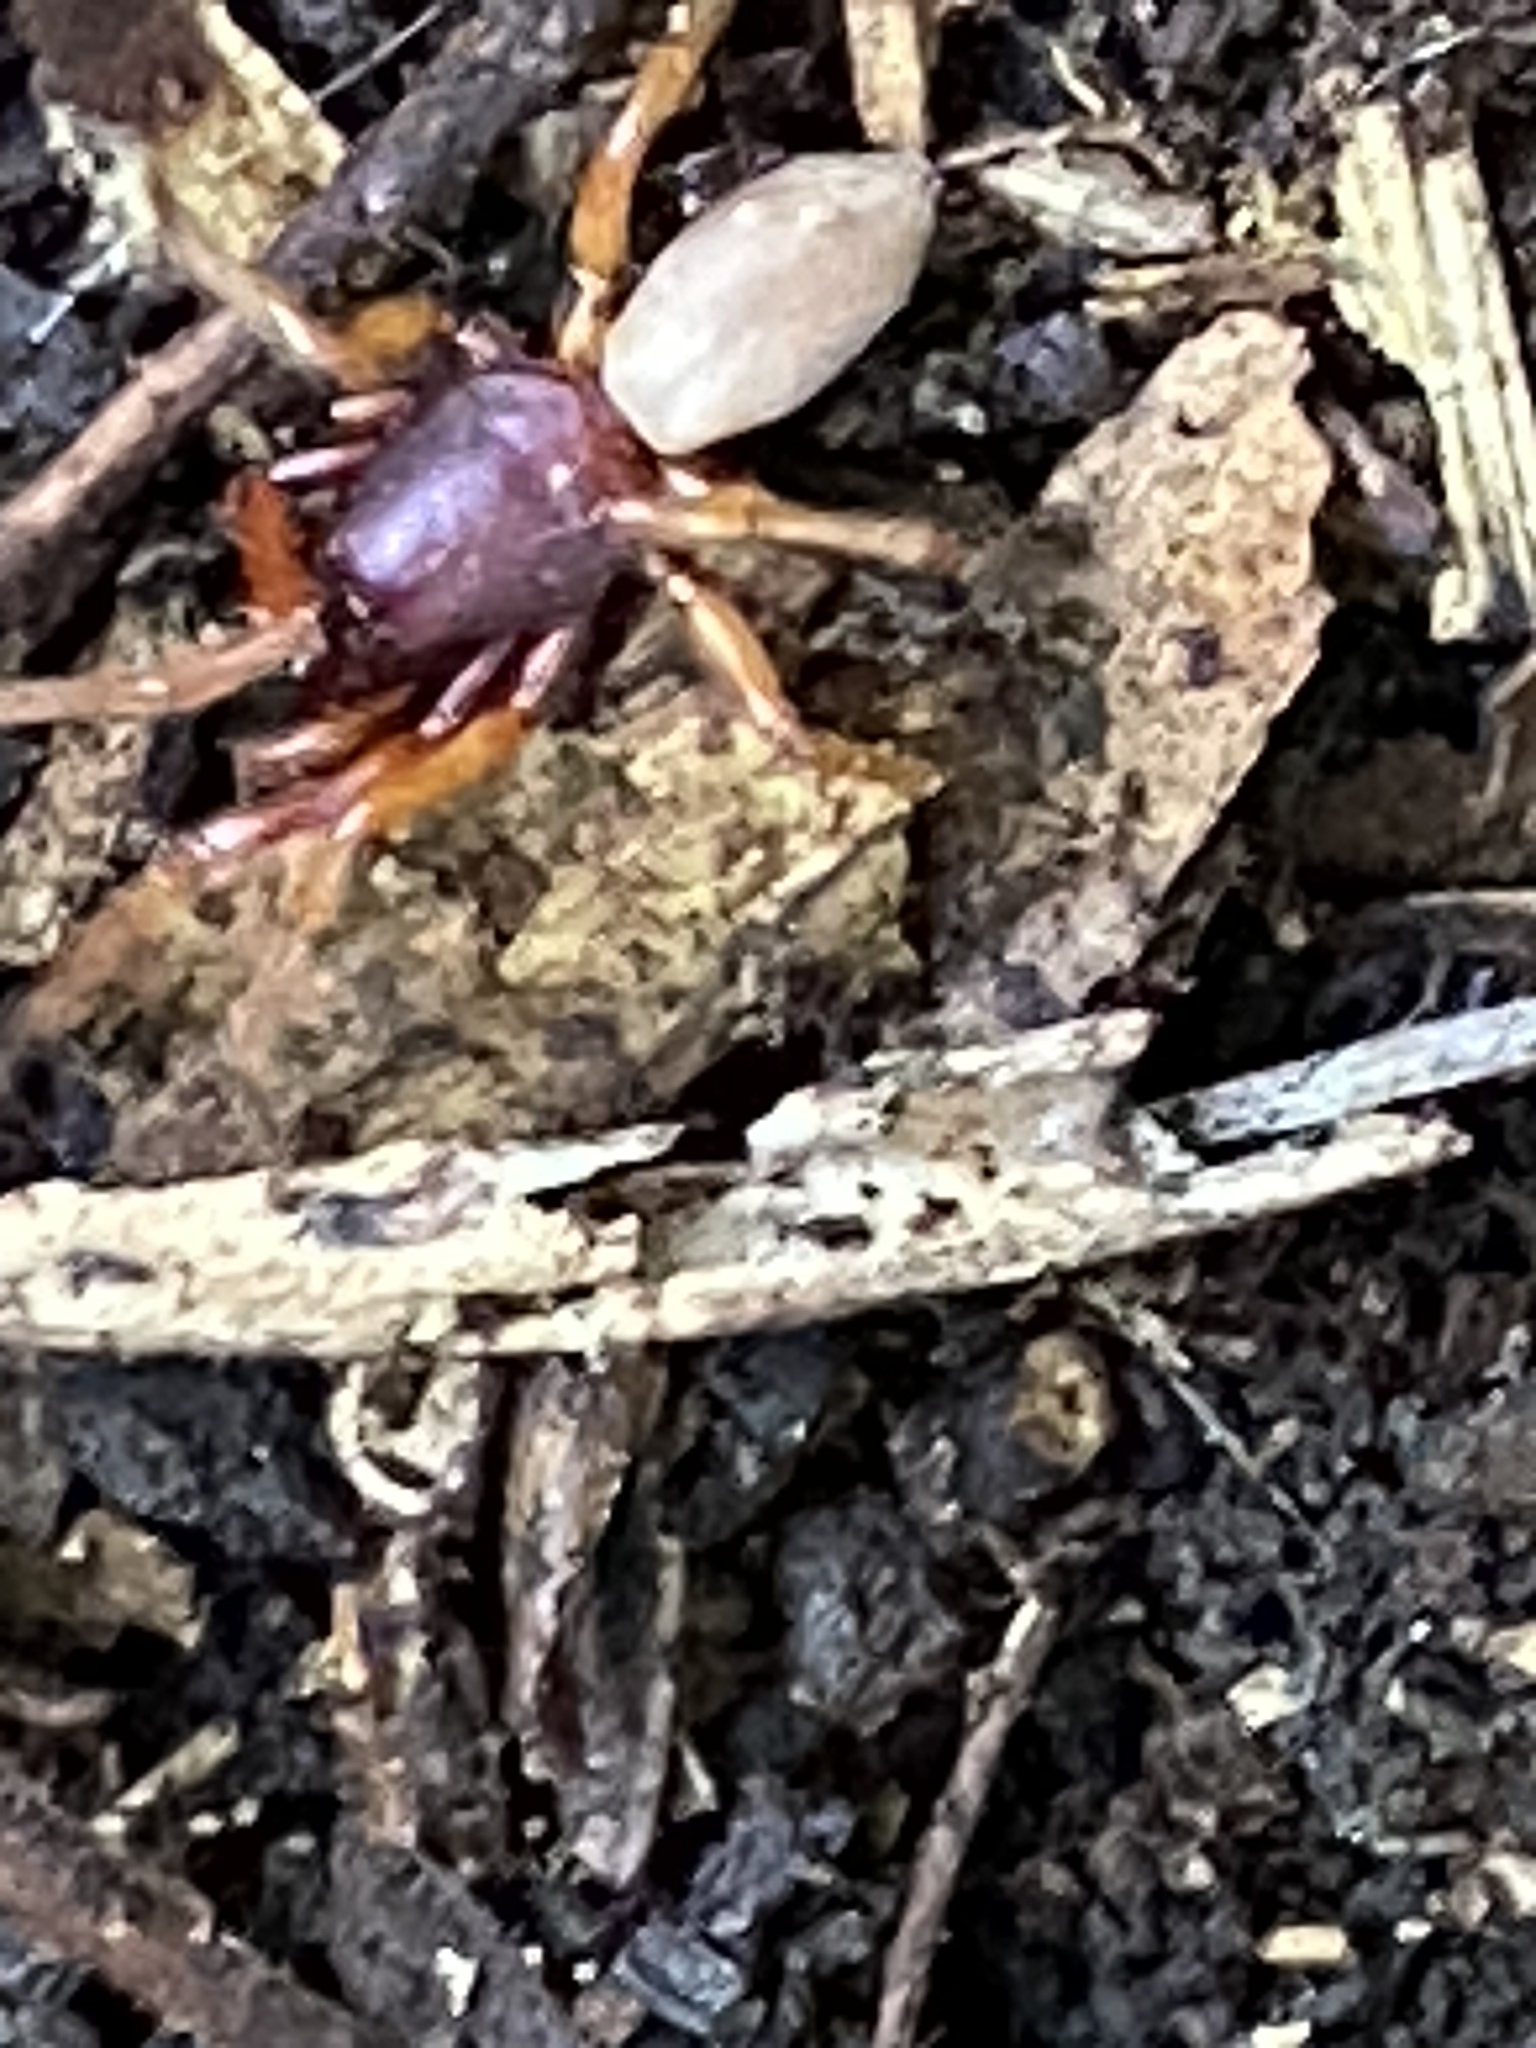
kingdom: Animalia
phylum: Arthropoda
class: Arachnida
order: Araneae
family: Dysderidae
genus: Dysdera
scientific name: Dysdera crocata
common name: Woodlouse spider
